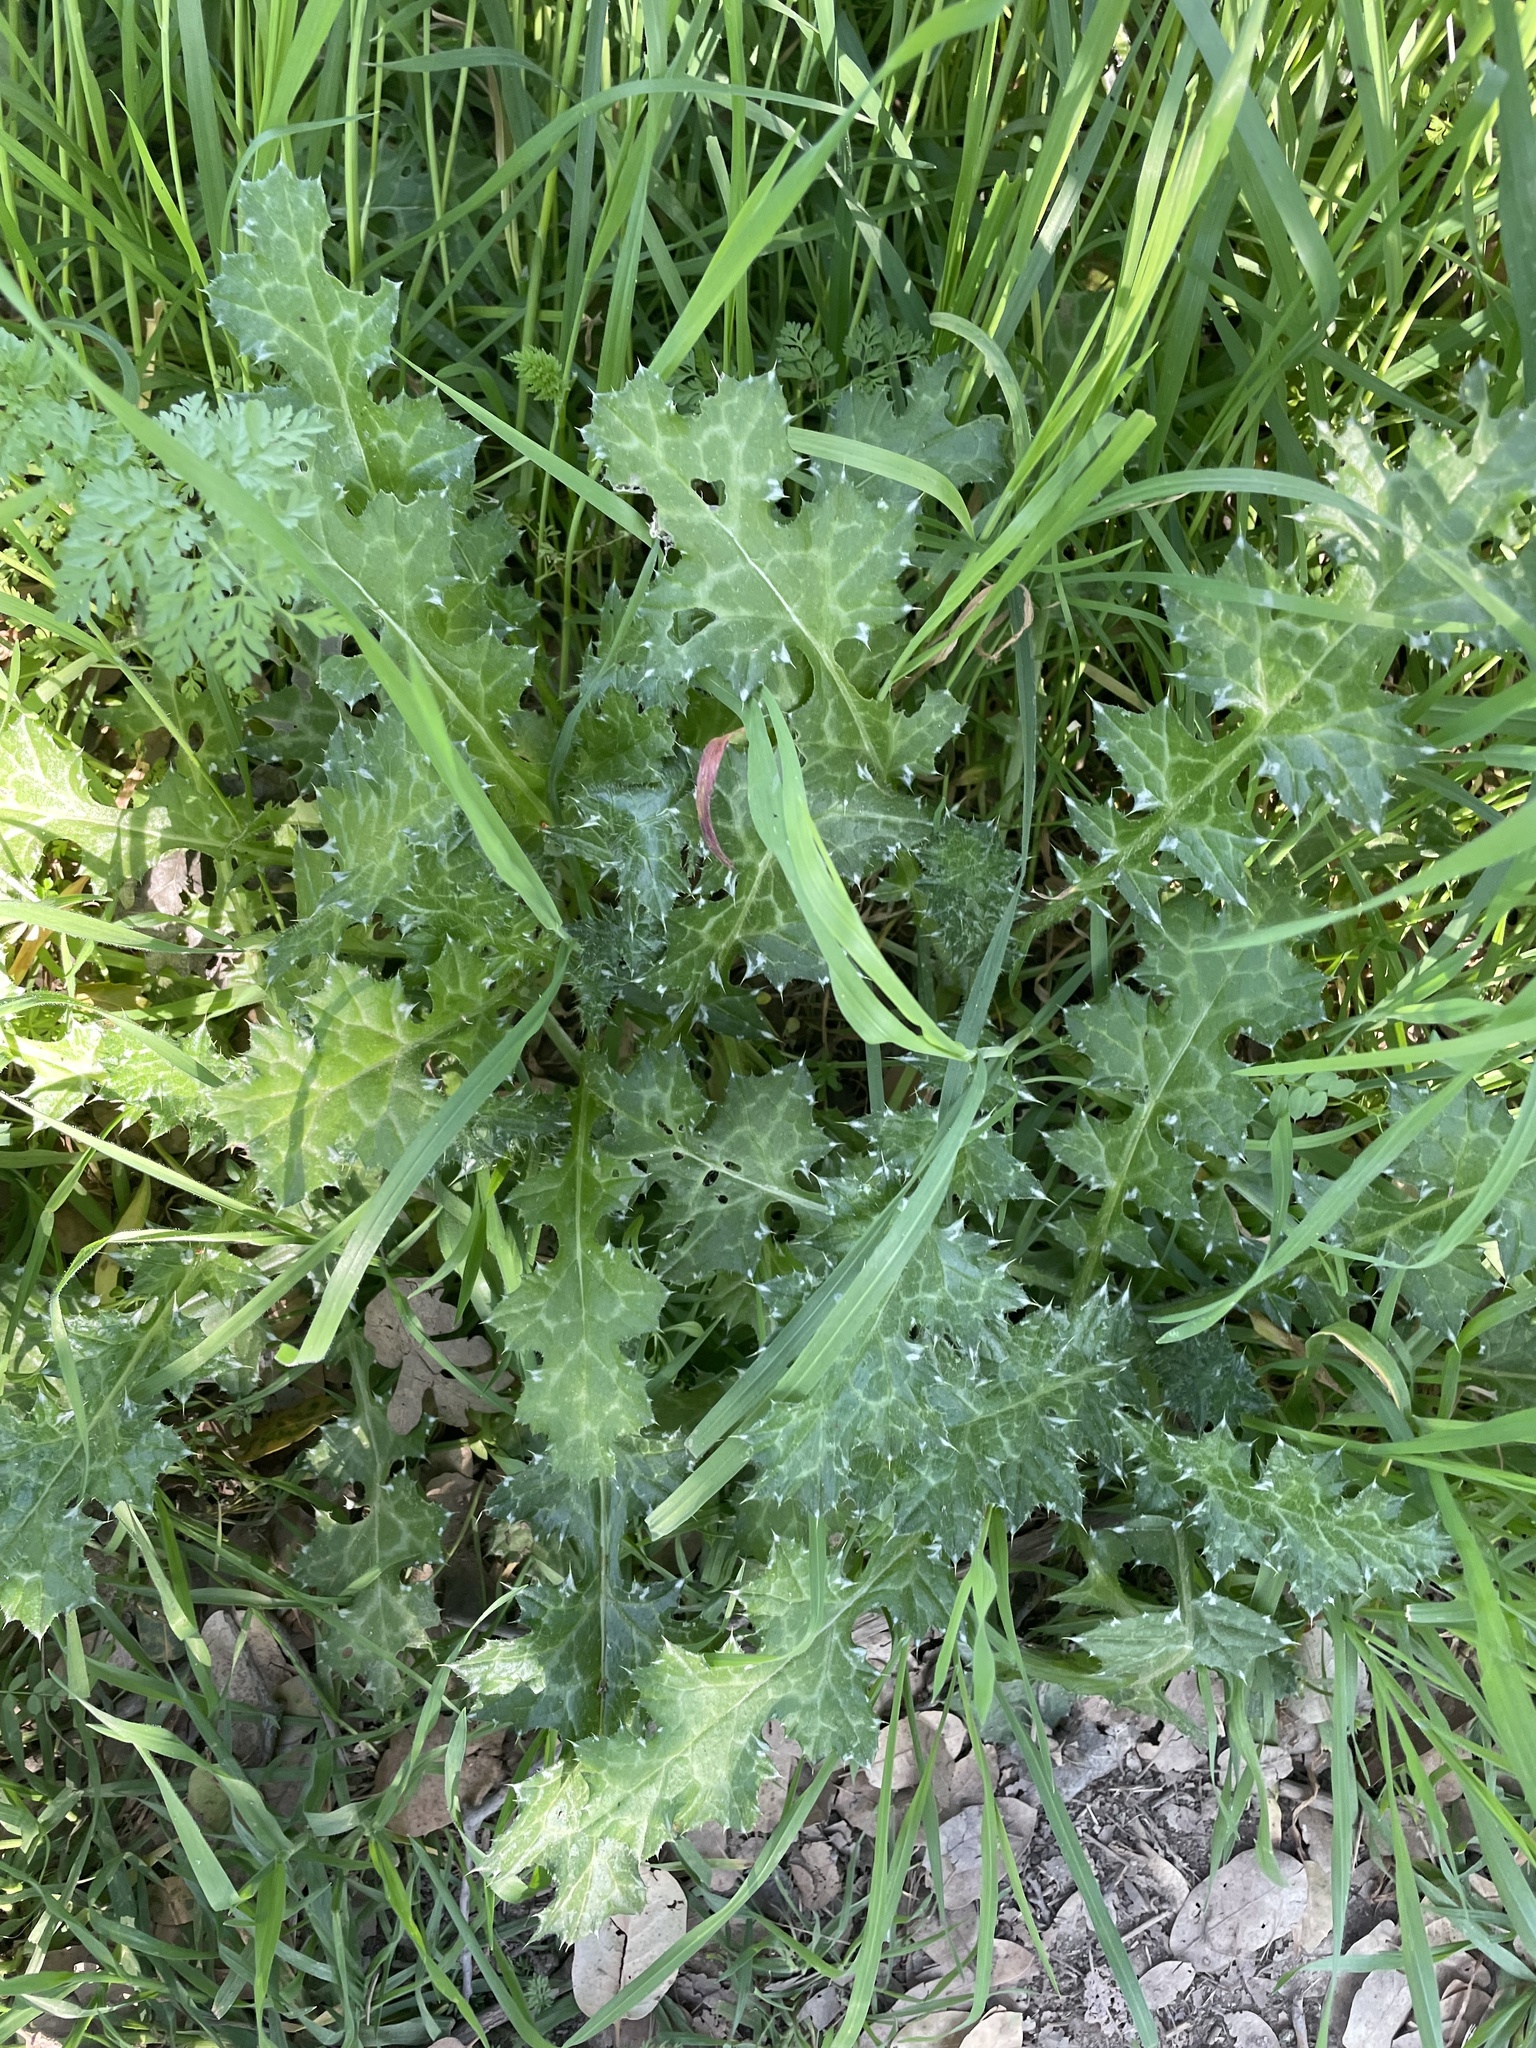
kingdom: Plantae
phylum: Tracheophyta
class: Magnoliopsida
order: Asterales
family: Asteraceae
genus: Carduus
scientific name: Carduus pycnocephalus
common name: Plymouth thistle
